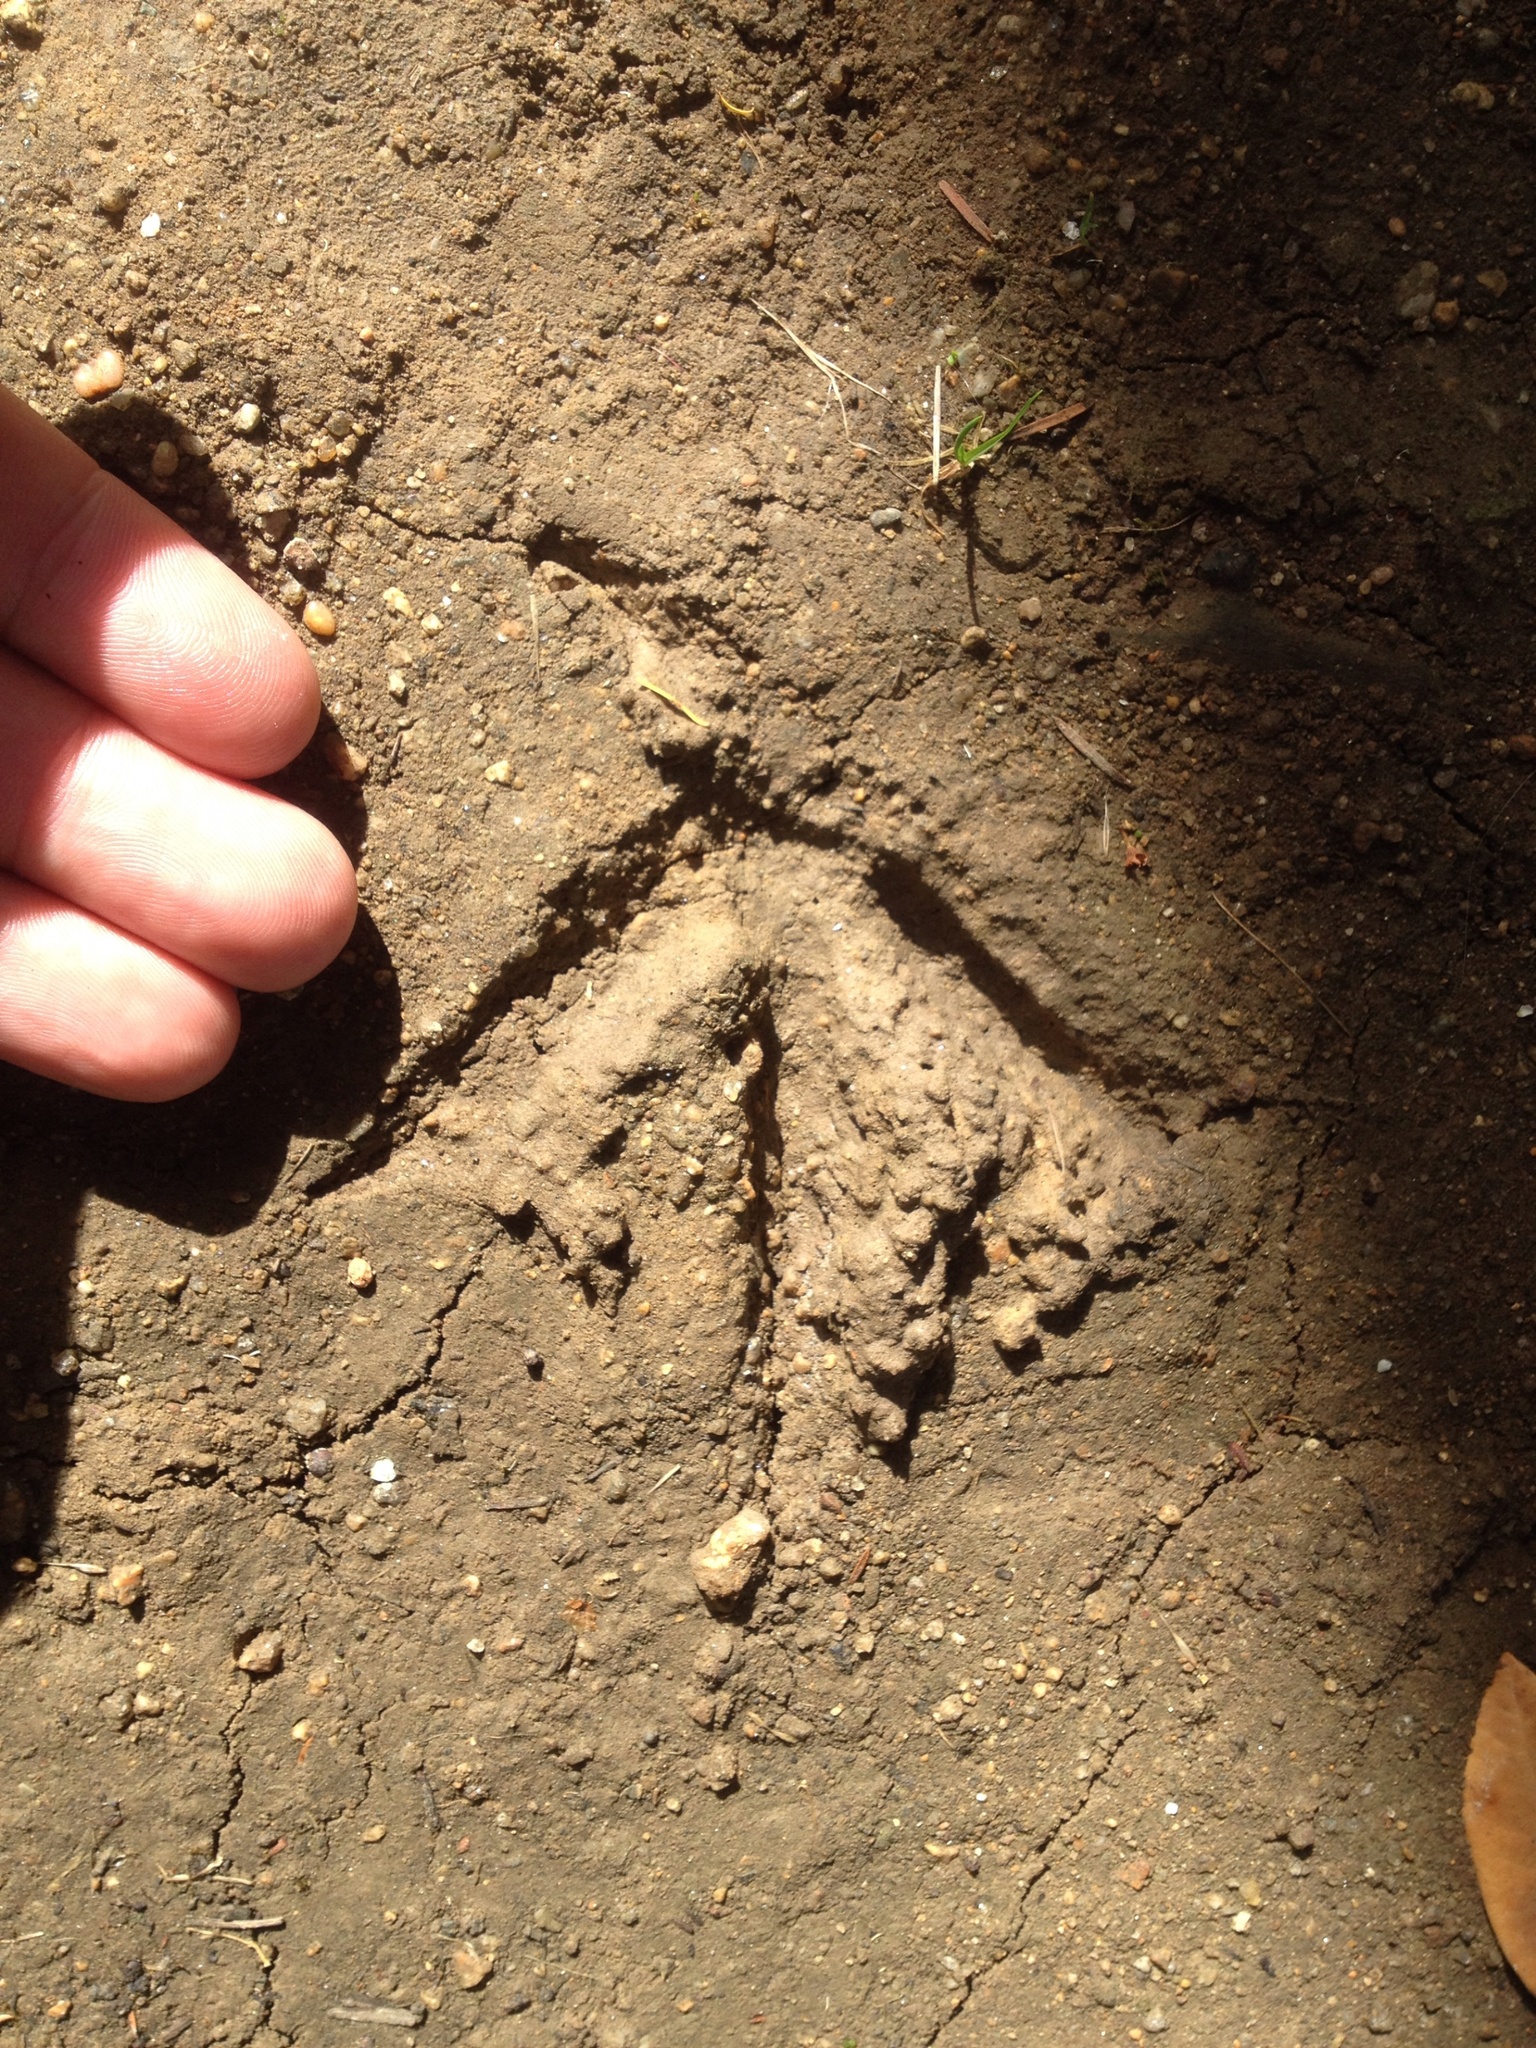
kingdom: Animalia
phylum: Chordata
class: Aves
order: Gruiformes
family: Rallidae
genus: Gallirallus
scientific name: Gallirallus australis
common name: Weka
